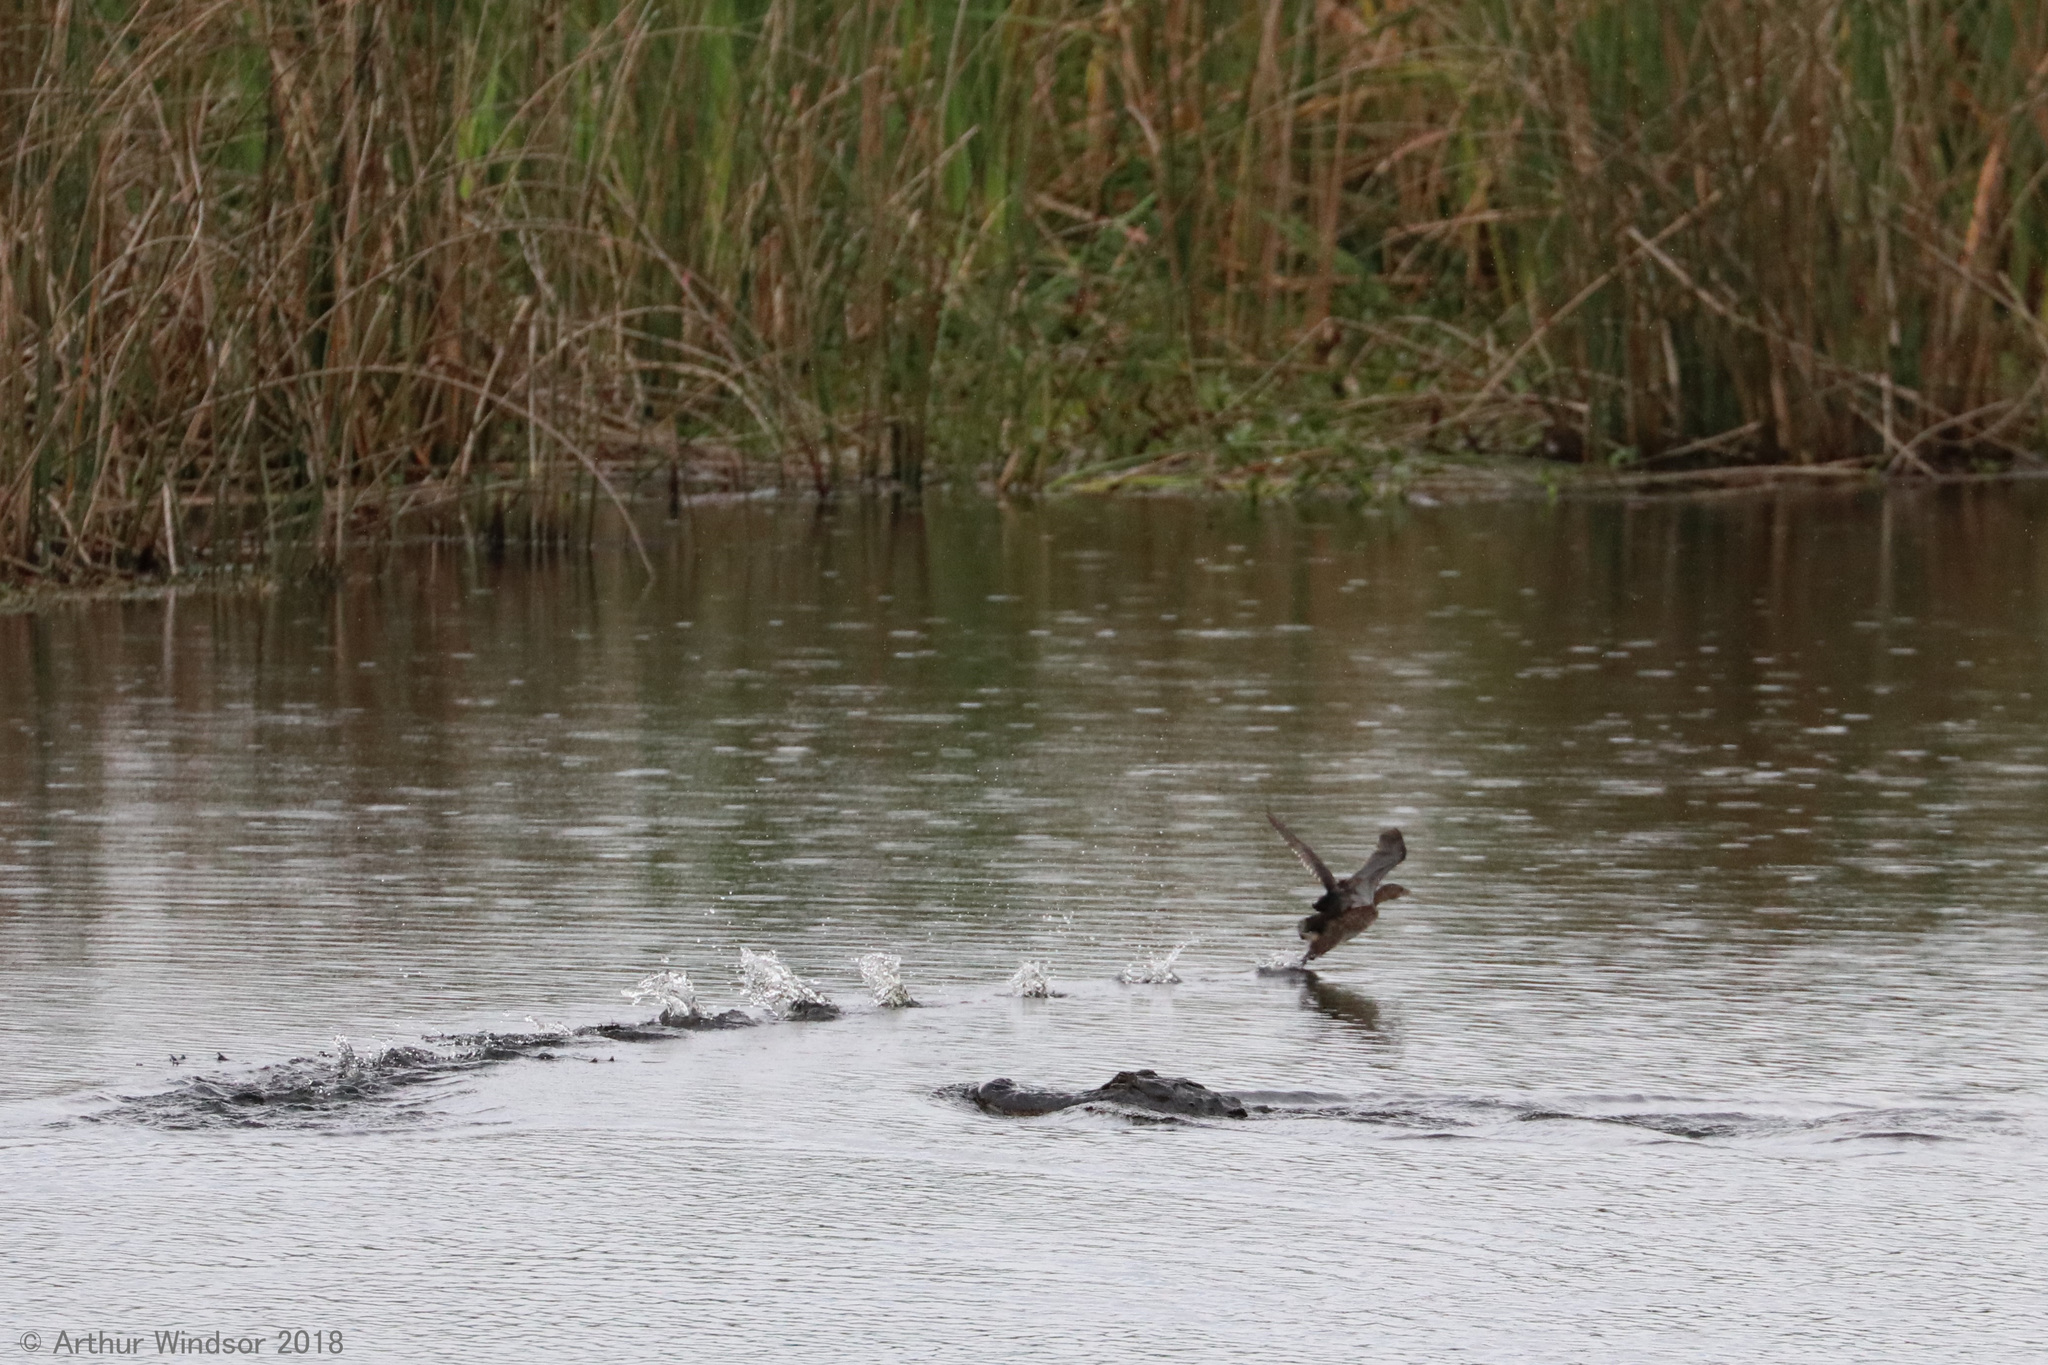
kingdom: Animalia
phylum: Chordata
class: Aves
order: Podicipediformes
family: Podicipedidae
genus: Podilymbus
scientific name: Podilymbus podiceps
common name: Pied-billed grebe
